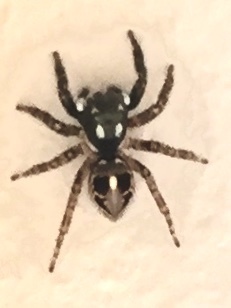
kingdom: Animalia
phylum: Arthropoda
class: Arachnida
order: Araneae
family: Salticidae
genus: Anasaitis
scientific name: Anasaitis canosa
